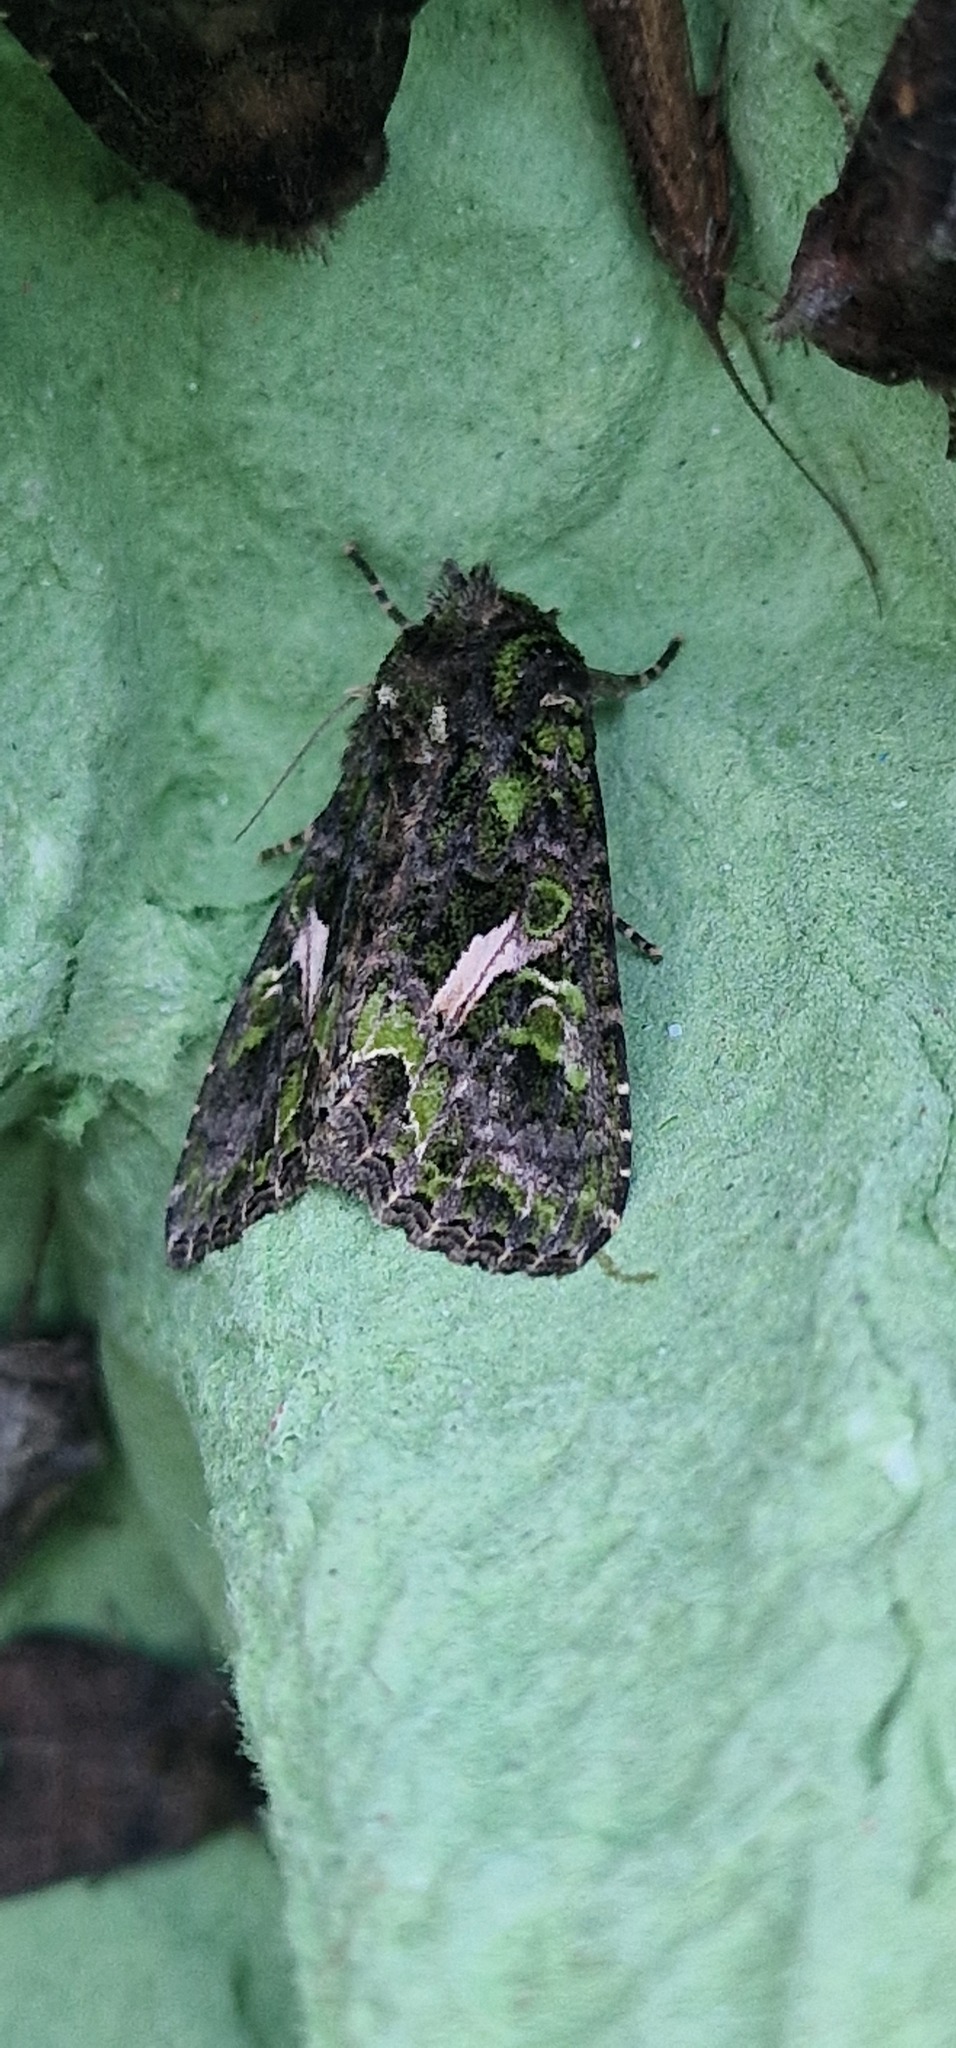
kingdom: Animalia
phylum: Arthropoda
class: Insecta
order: Lepidoptera
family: Noctuidae
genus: Trachea
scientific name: Trachea atriplicis
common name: Orache moth
